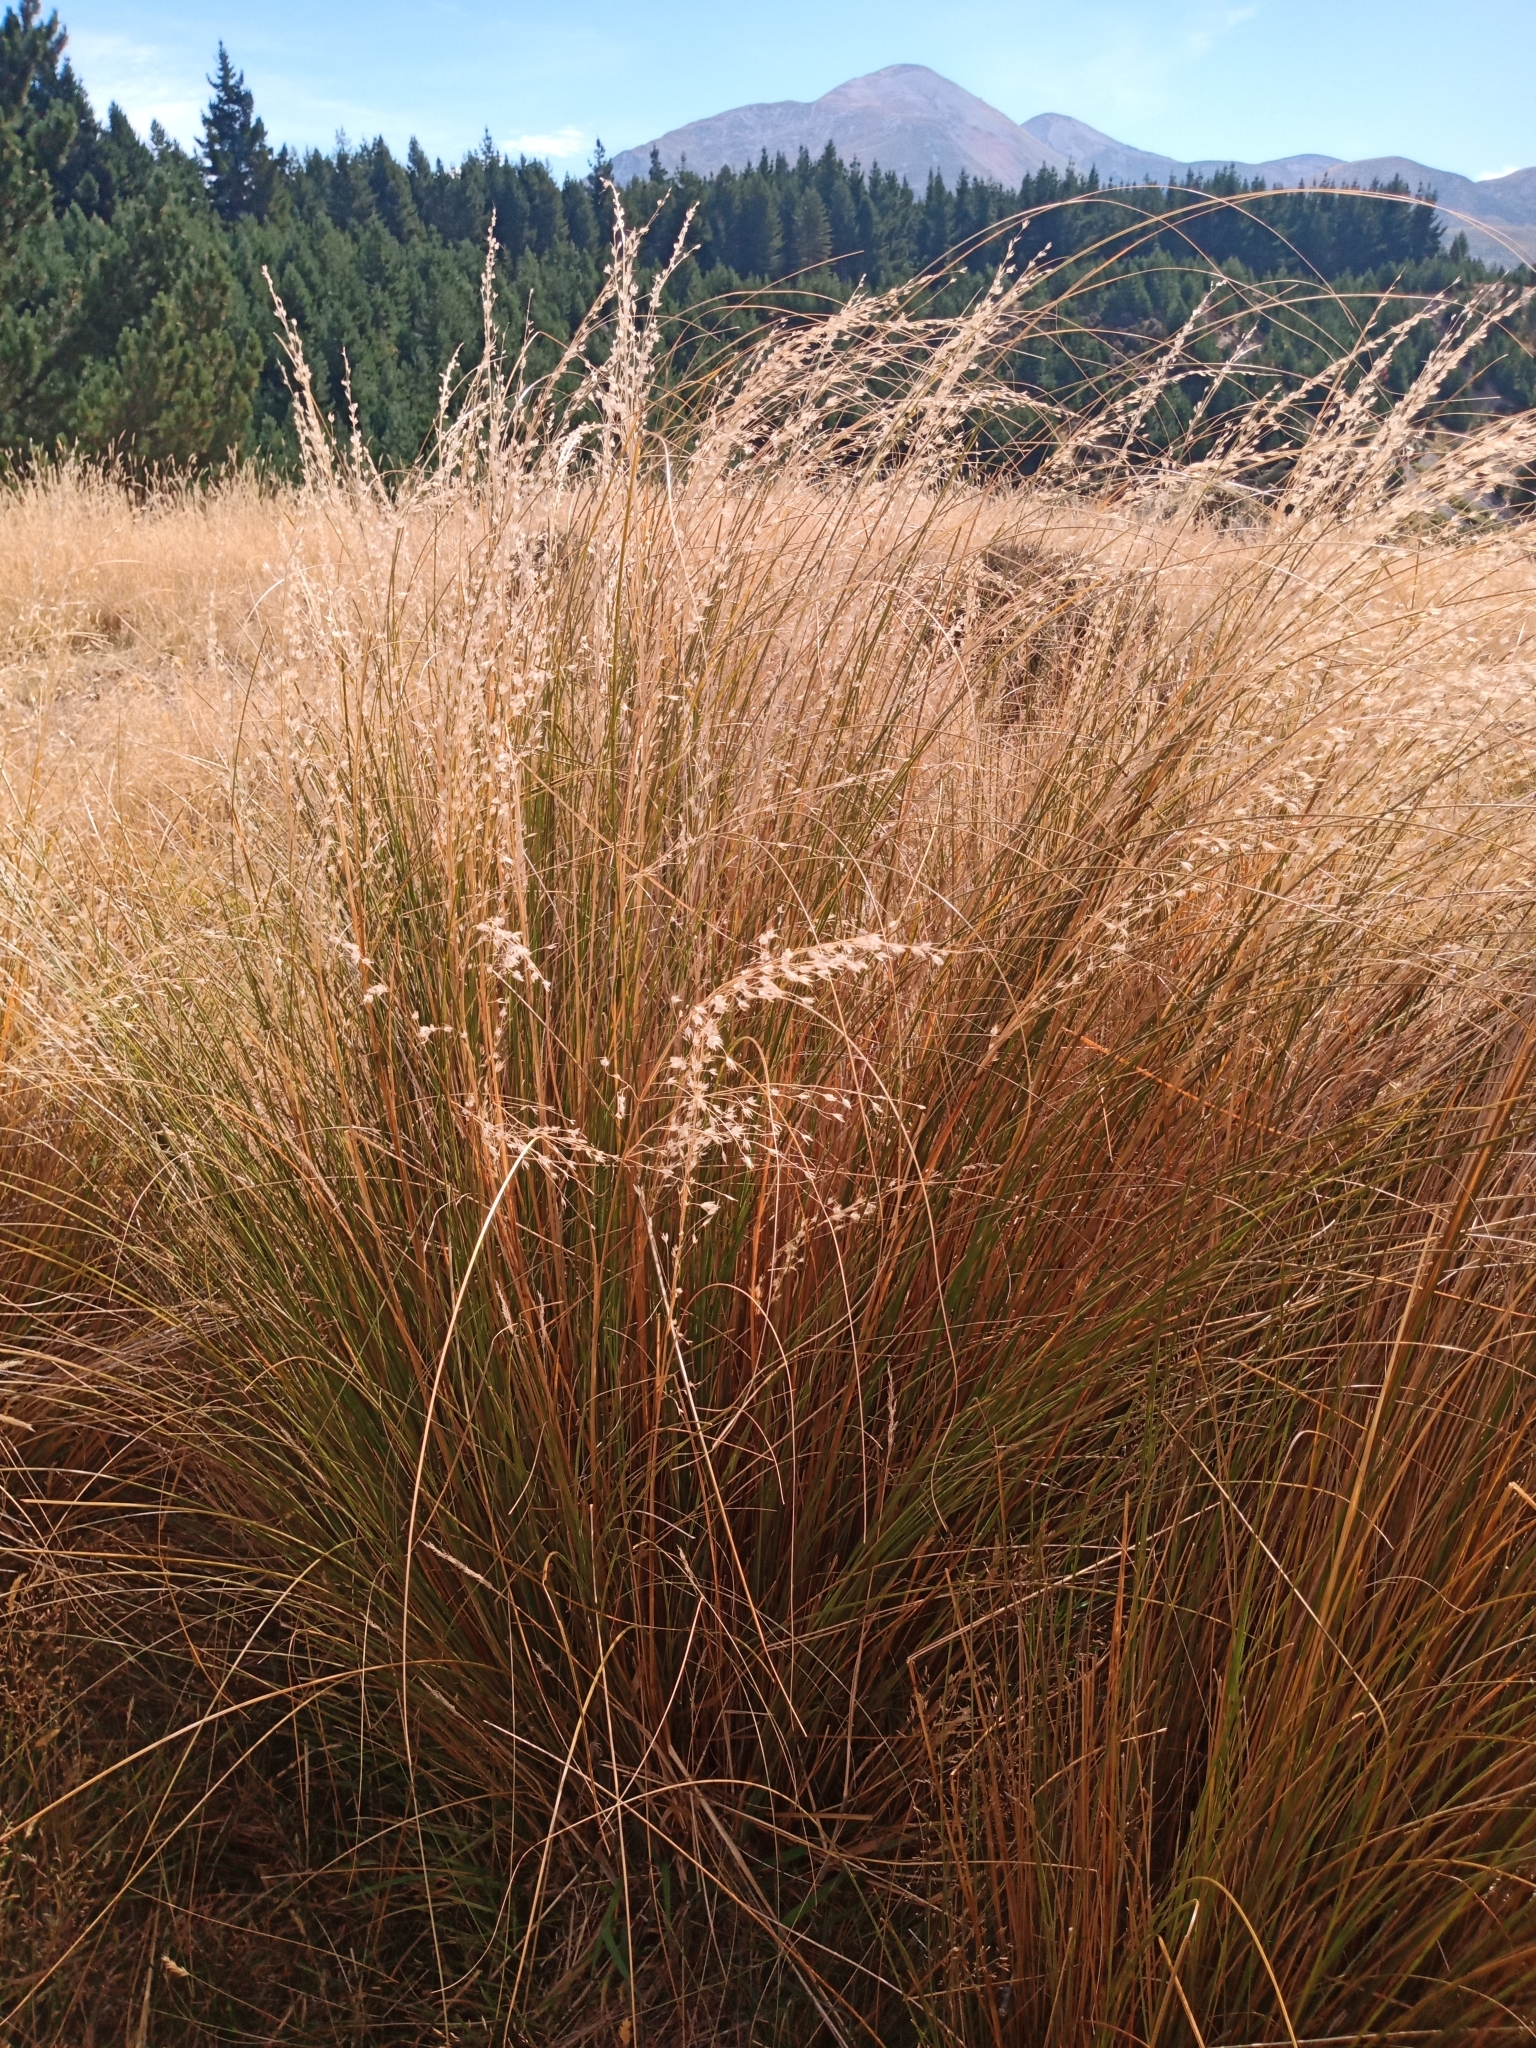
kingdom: Plantae
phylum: Tracheophyta
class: Liliopsida
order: Poales
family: Poaceae
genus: Chionochloa
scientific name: Chionochloa rubra
